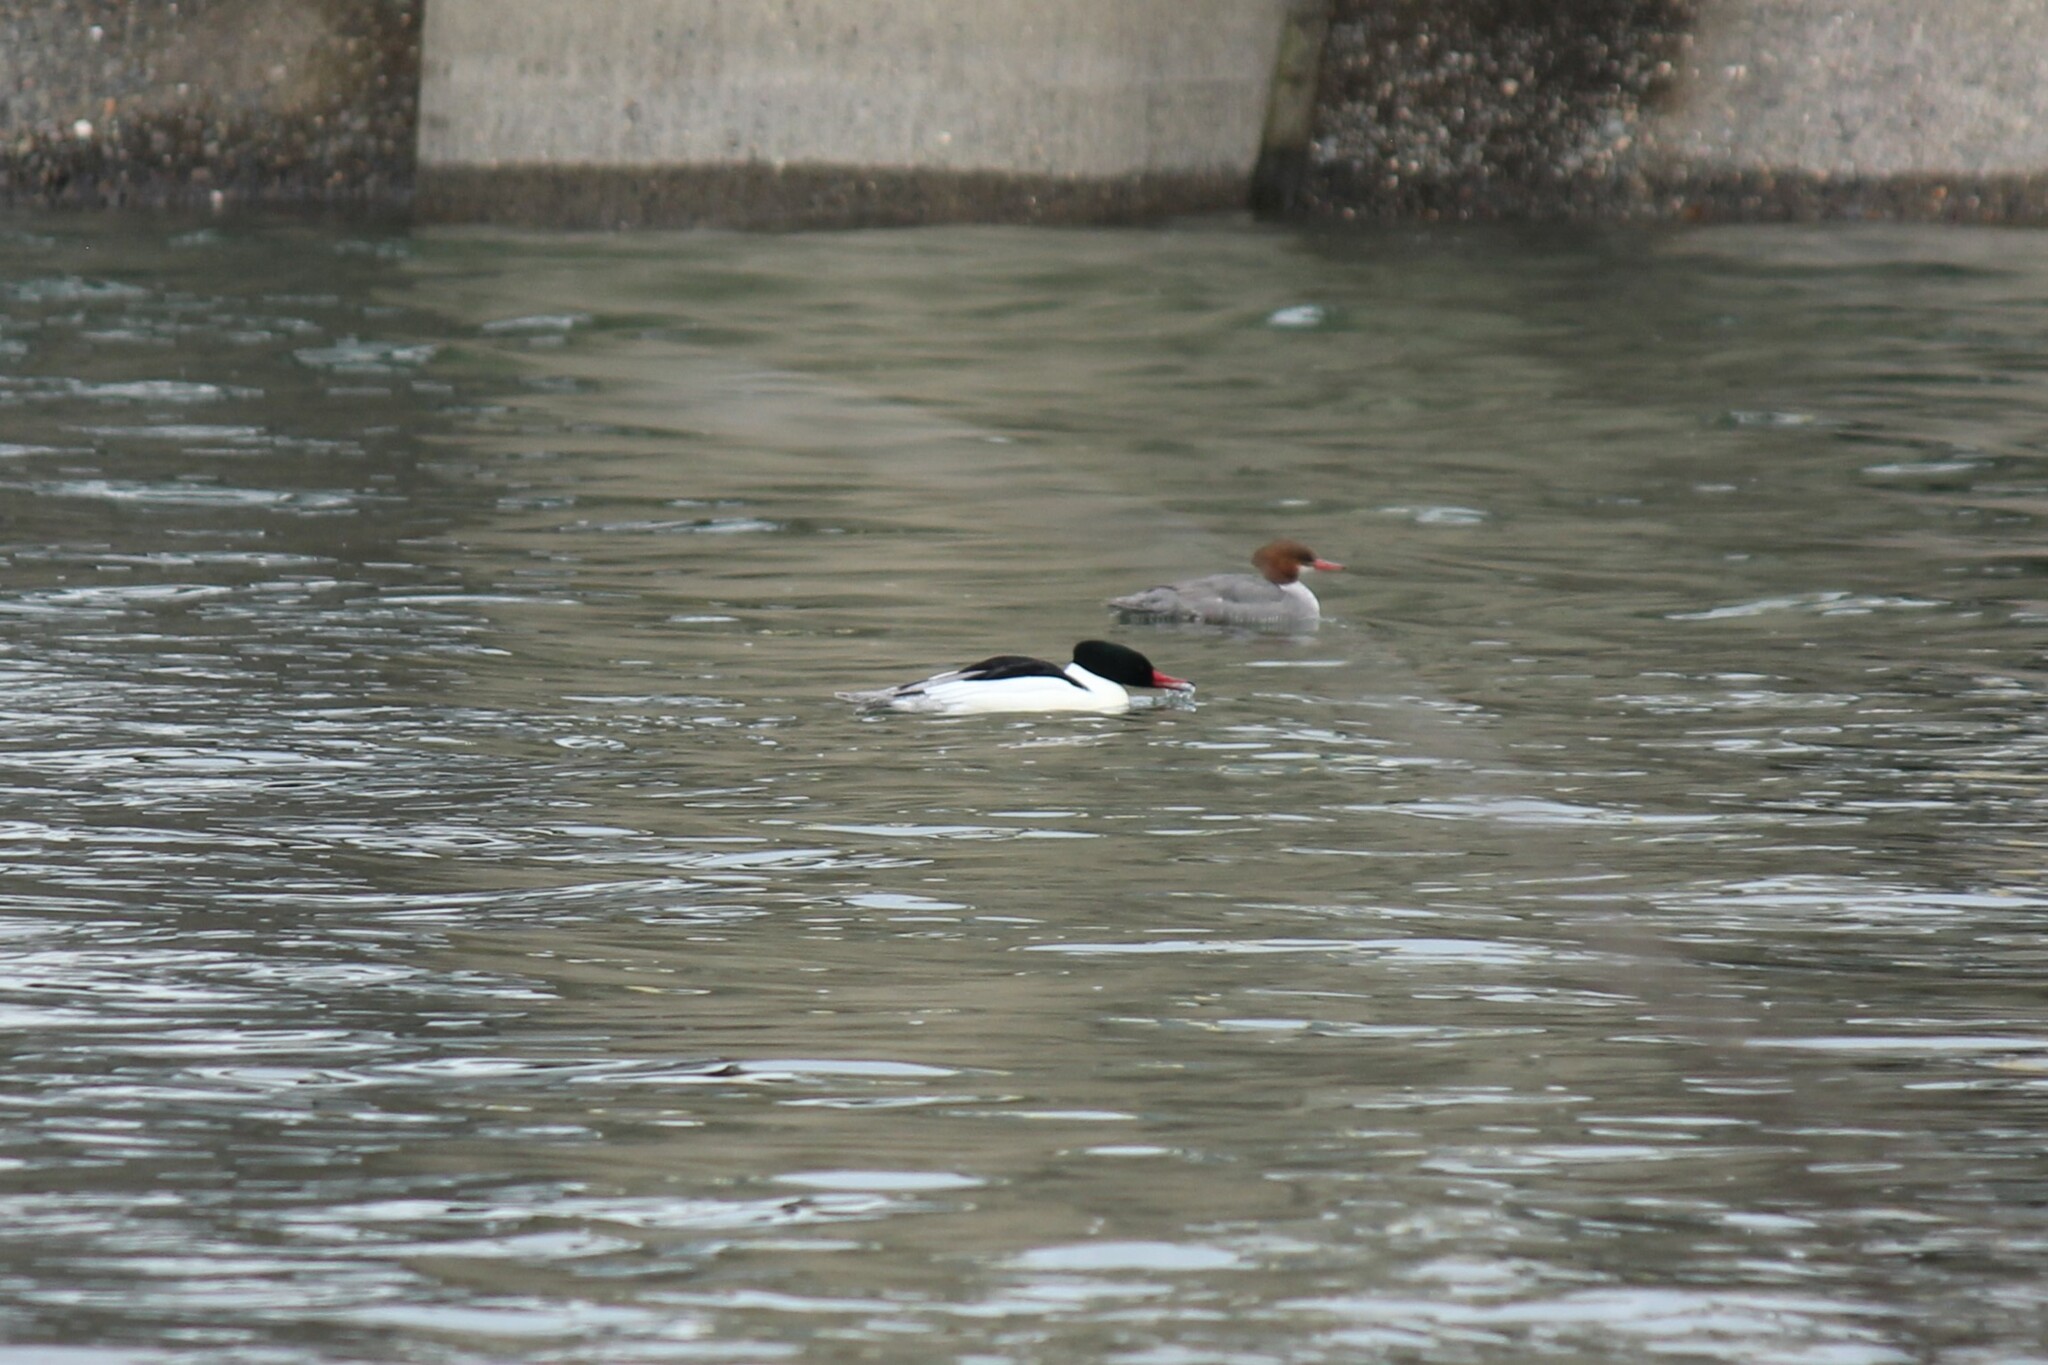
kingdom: Animalia
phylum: Chordata
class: Aves
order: Anseriformes
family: Anatidae
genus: Mergus
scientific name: Mergus merganser
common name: Common merganser
